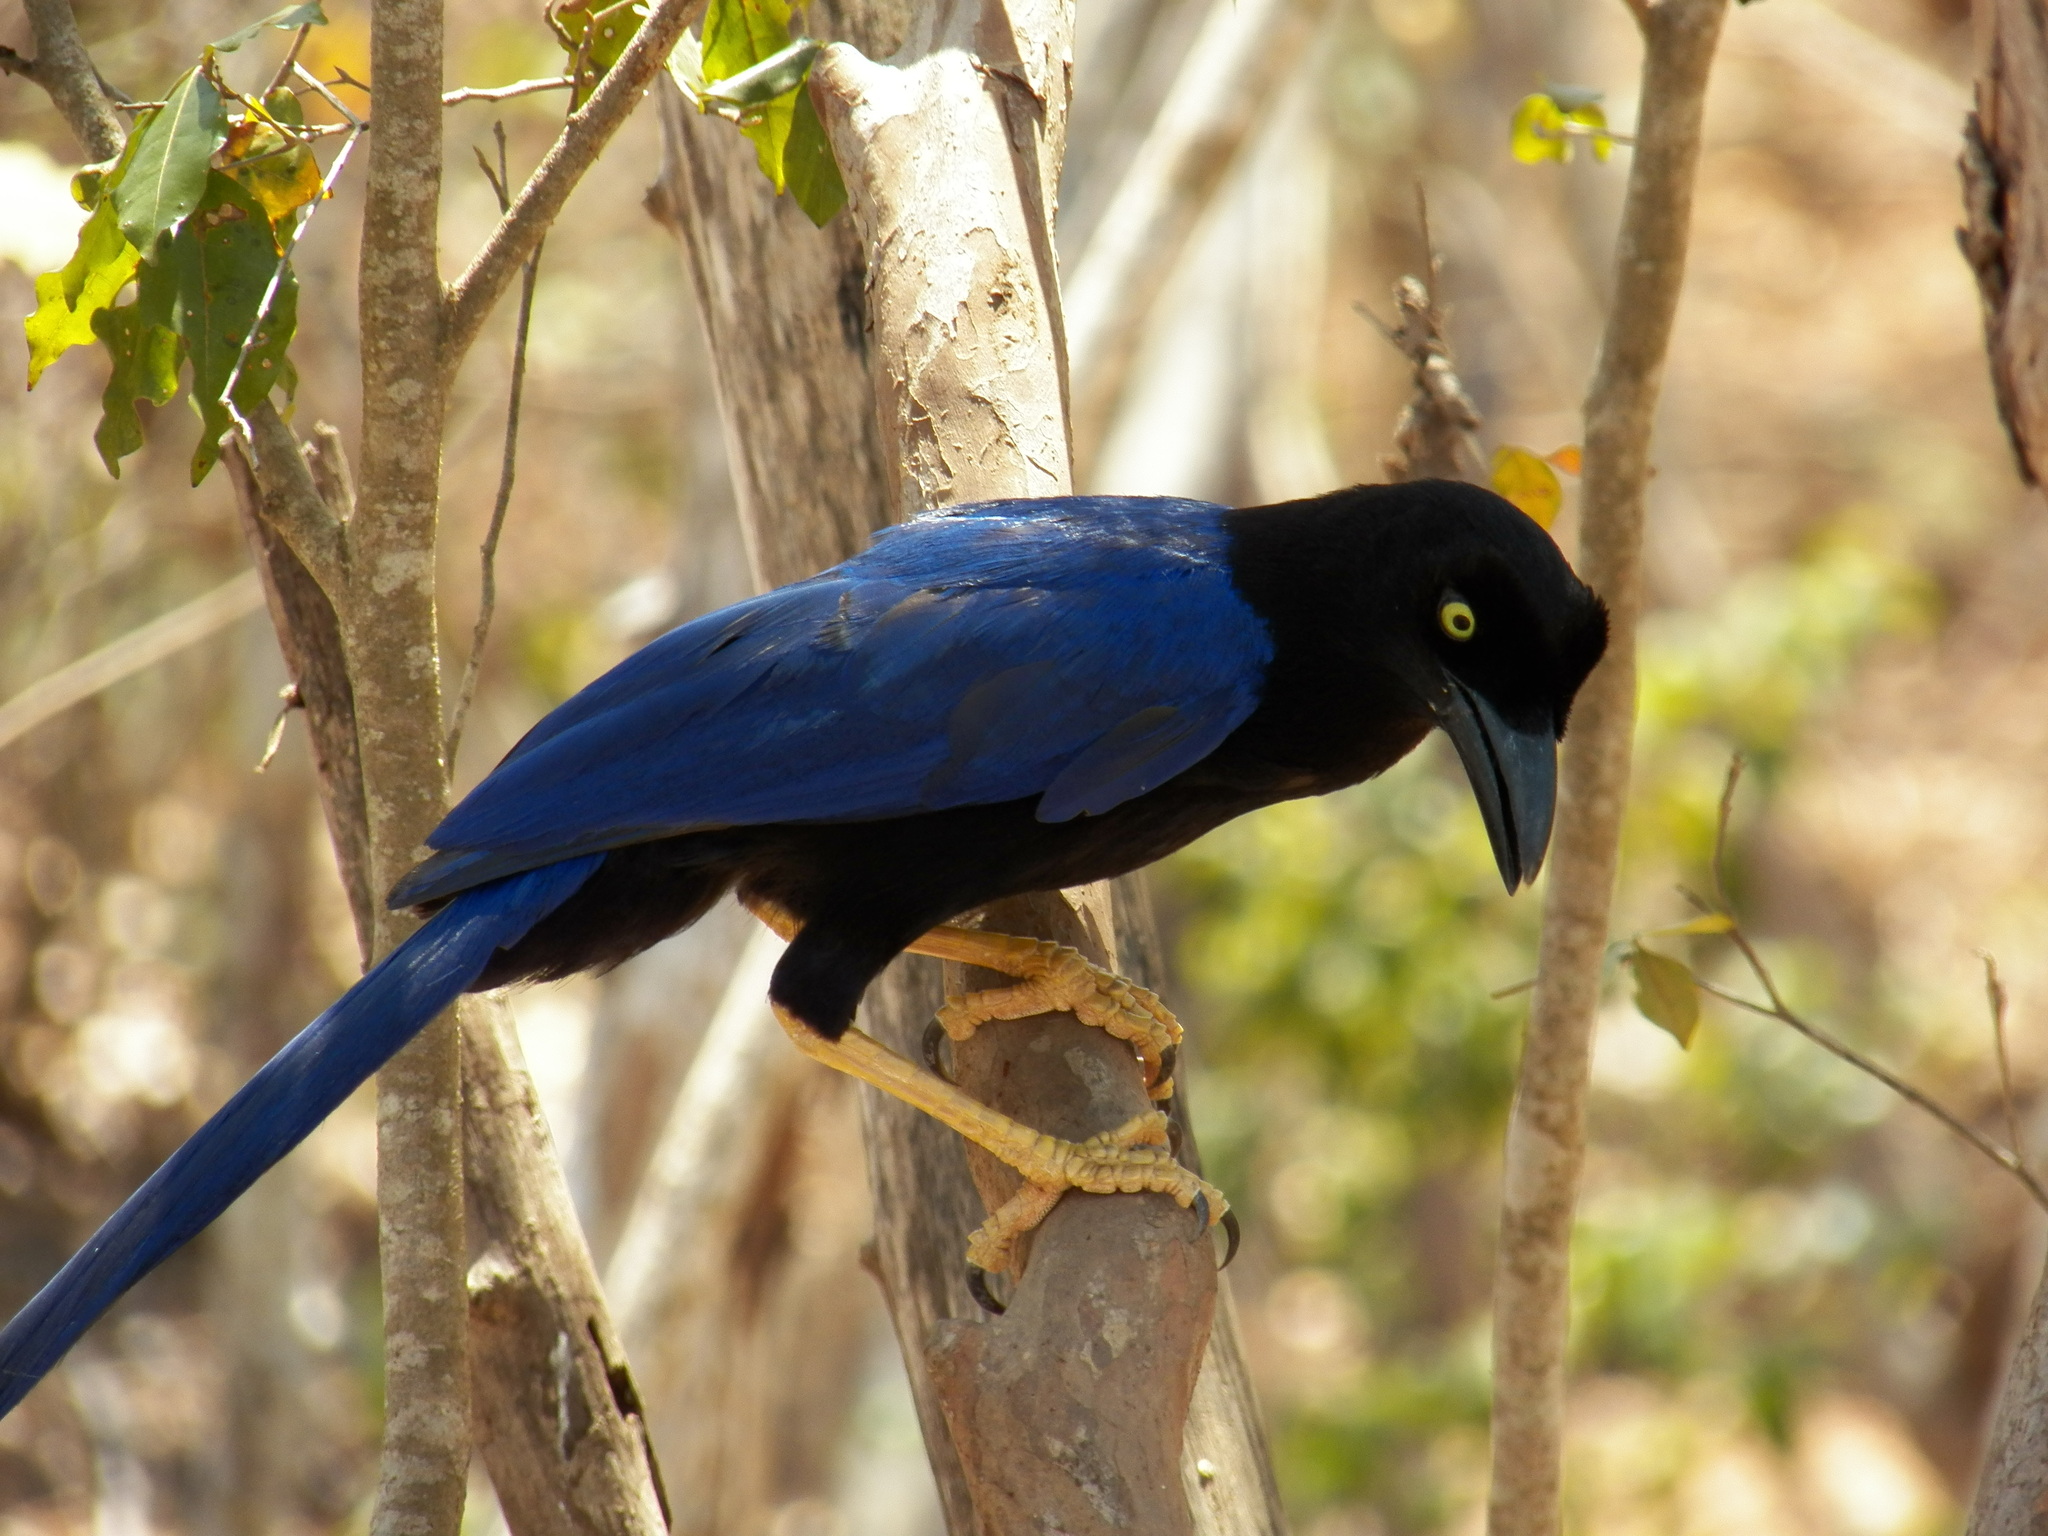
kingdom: Animalia
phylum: Chordata
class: Aves
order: Passeriformes
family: Corvidae
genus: Cyanocorax
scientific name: Cyanocorax beecheii
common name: Purplish-backed jay
